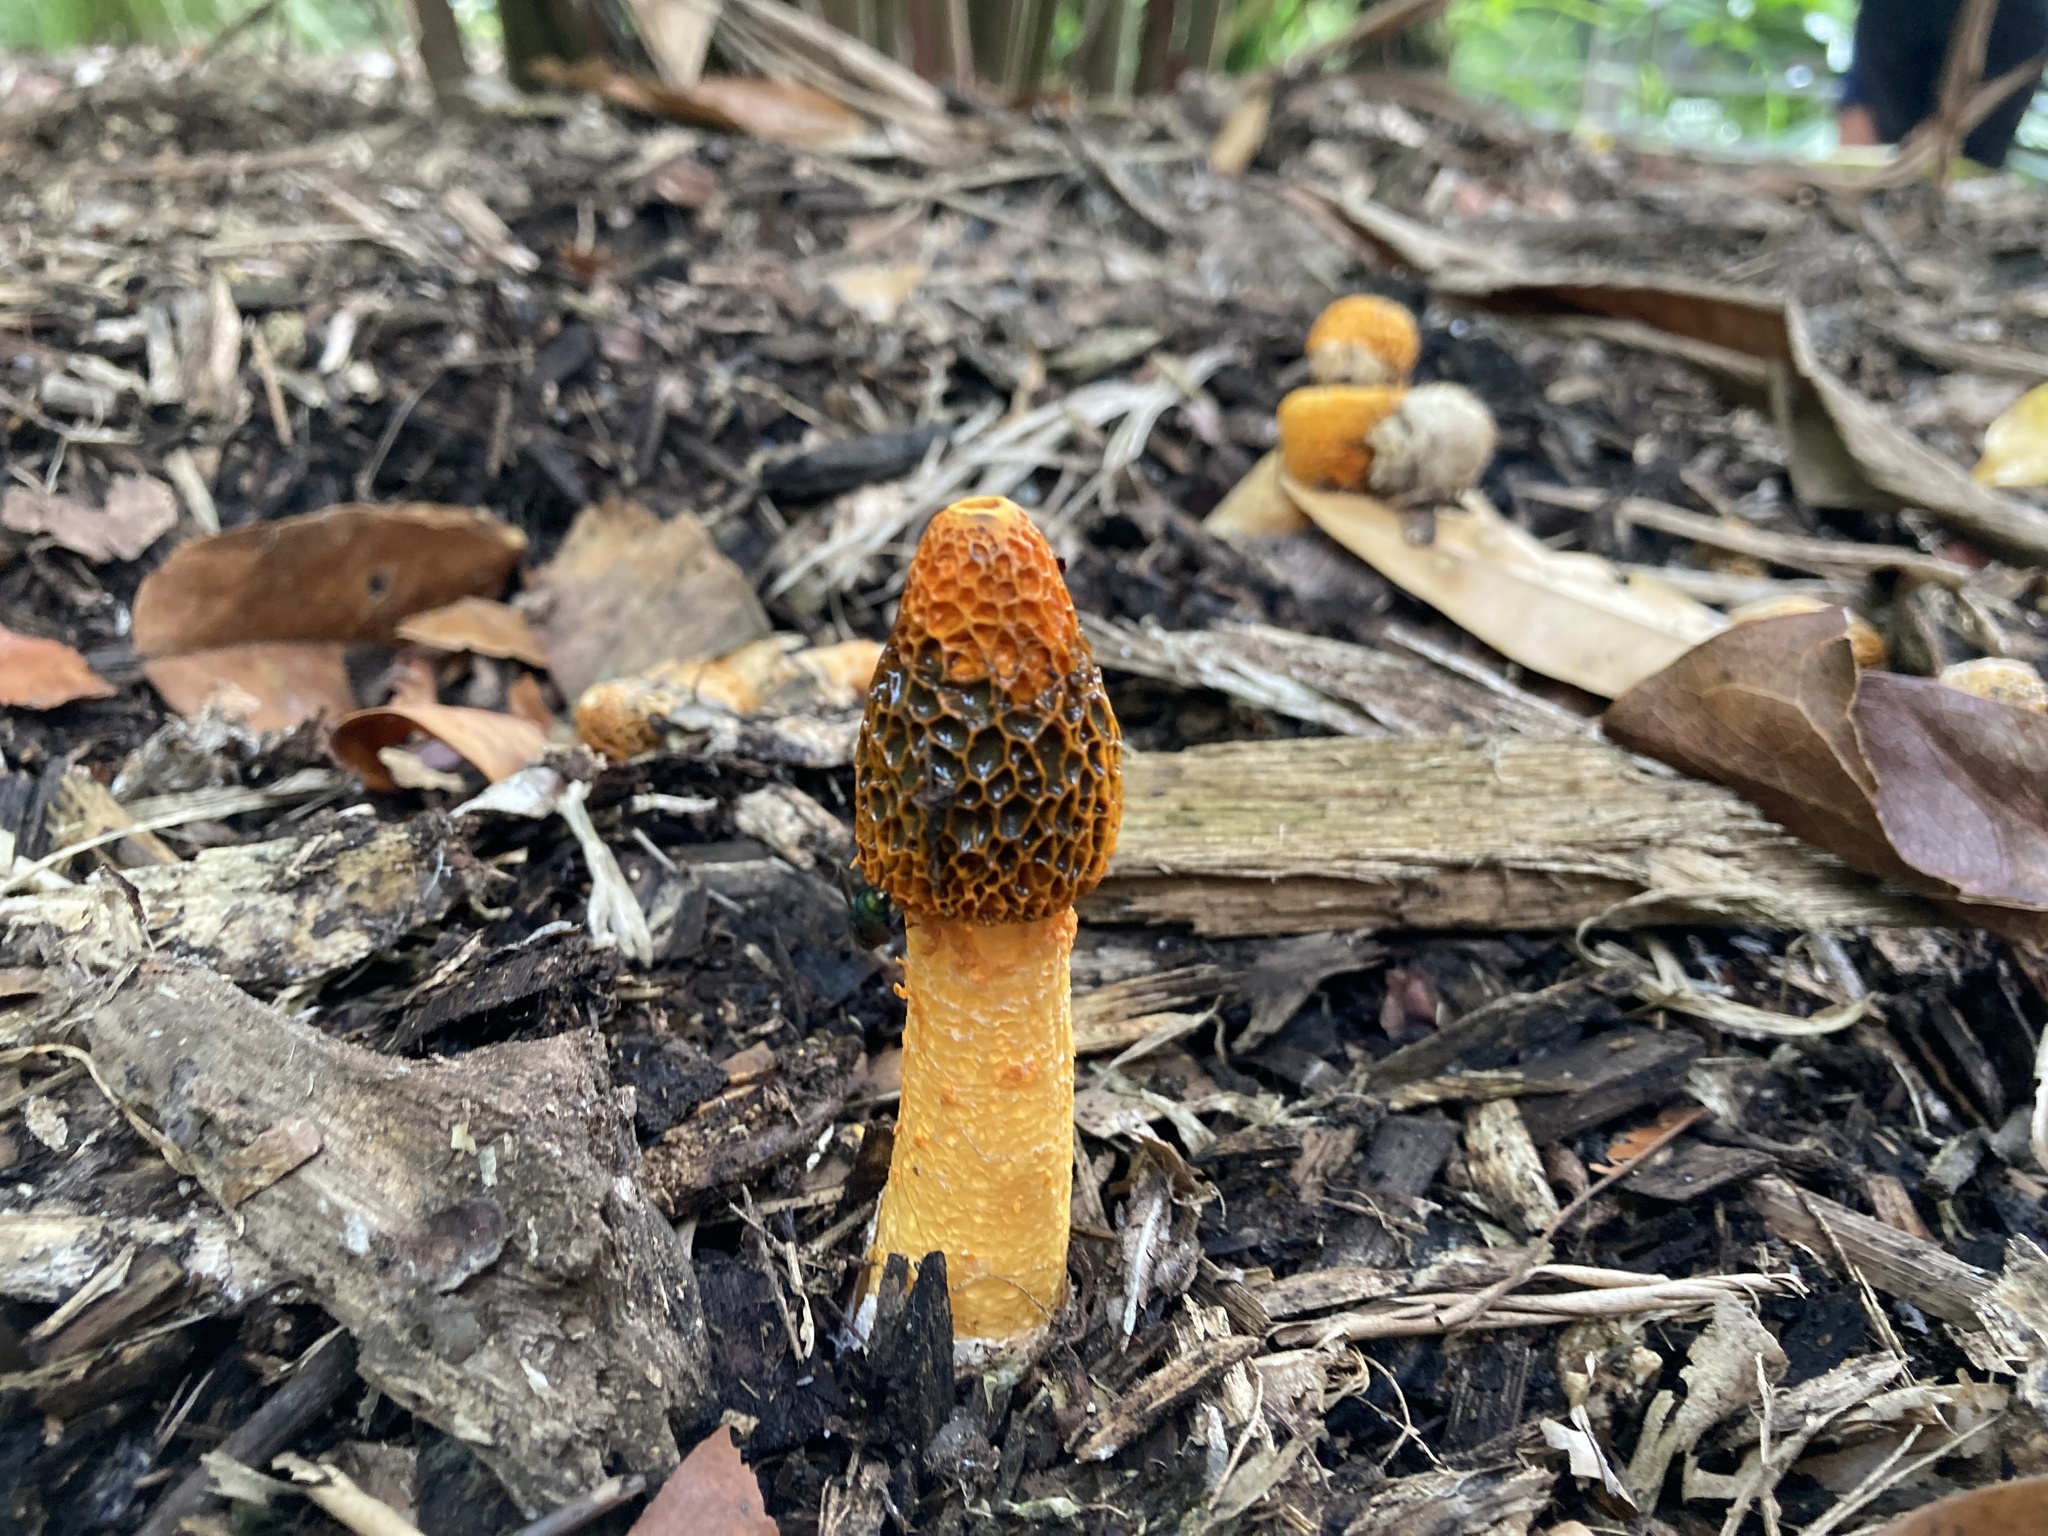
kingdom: Fungi
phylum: Basidiomycota
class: Agaricomycetes
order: Phallales
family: Phallaceae
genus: Phallus
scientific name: Phallus multicolor
